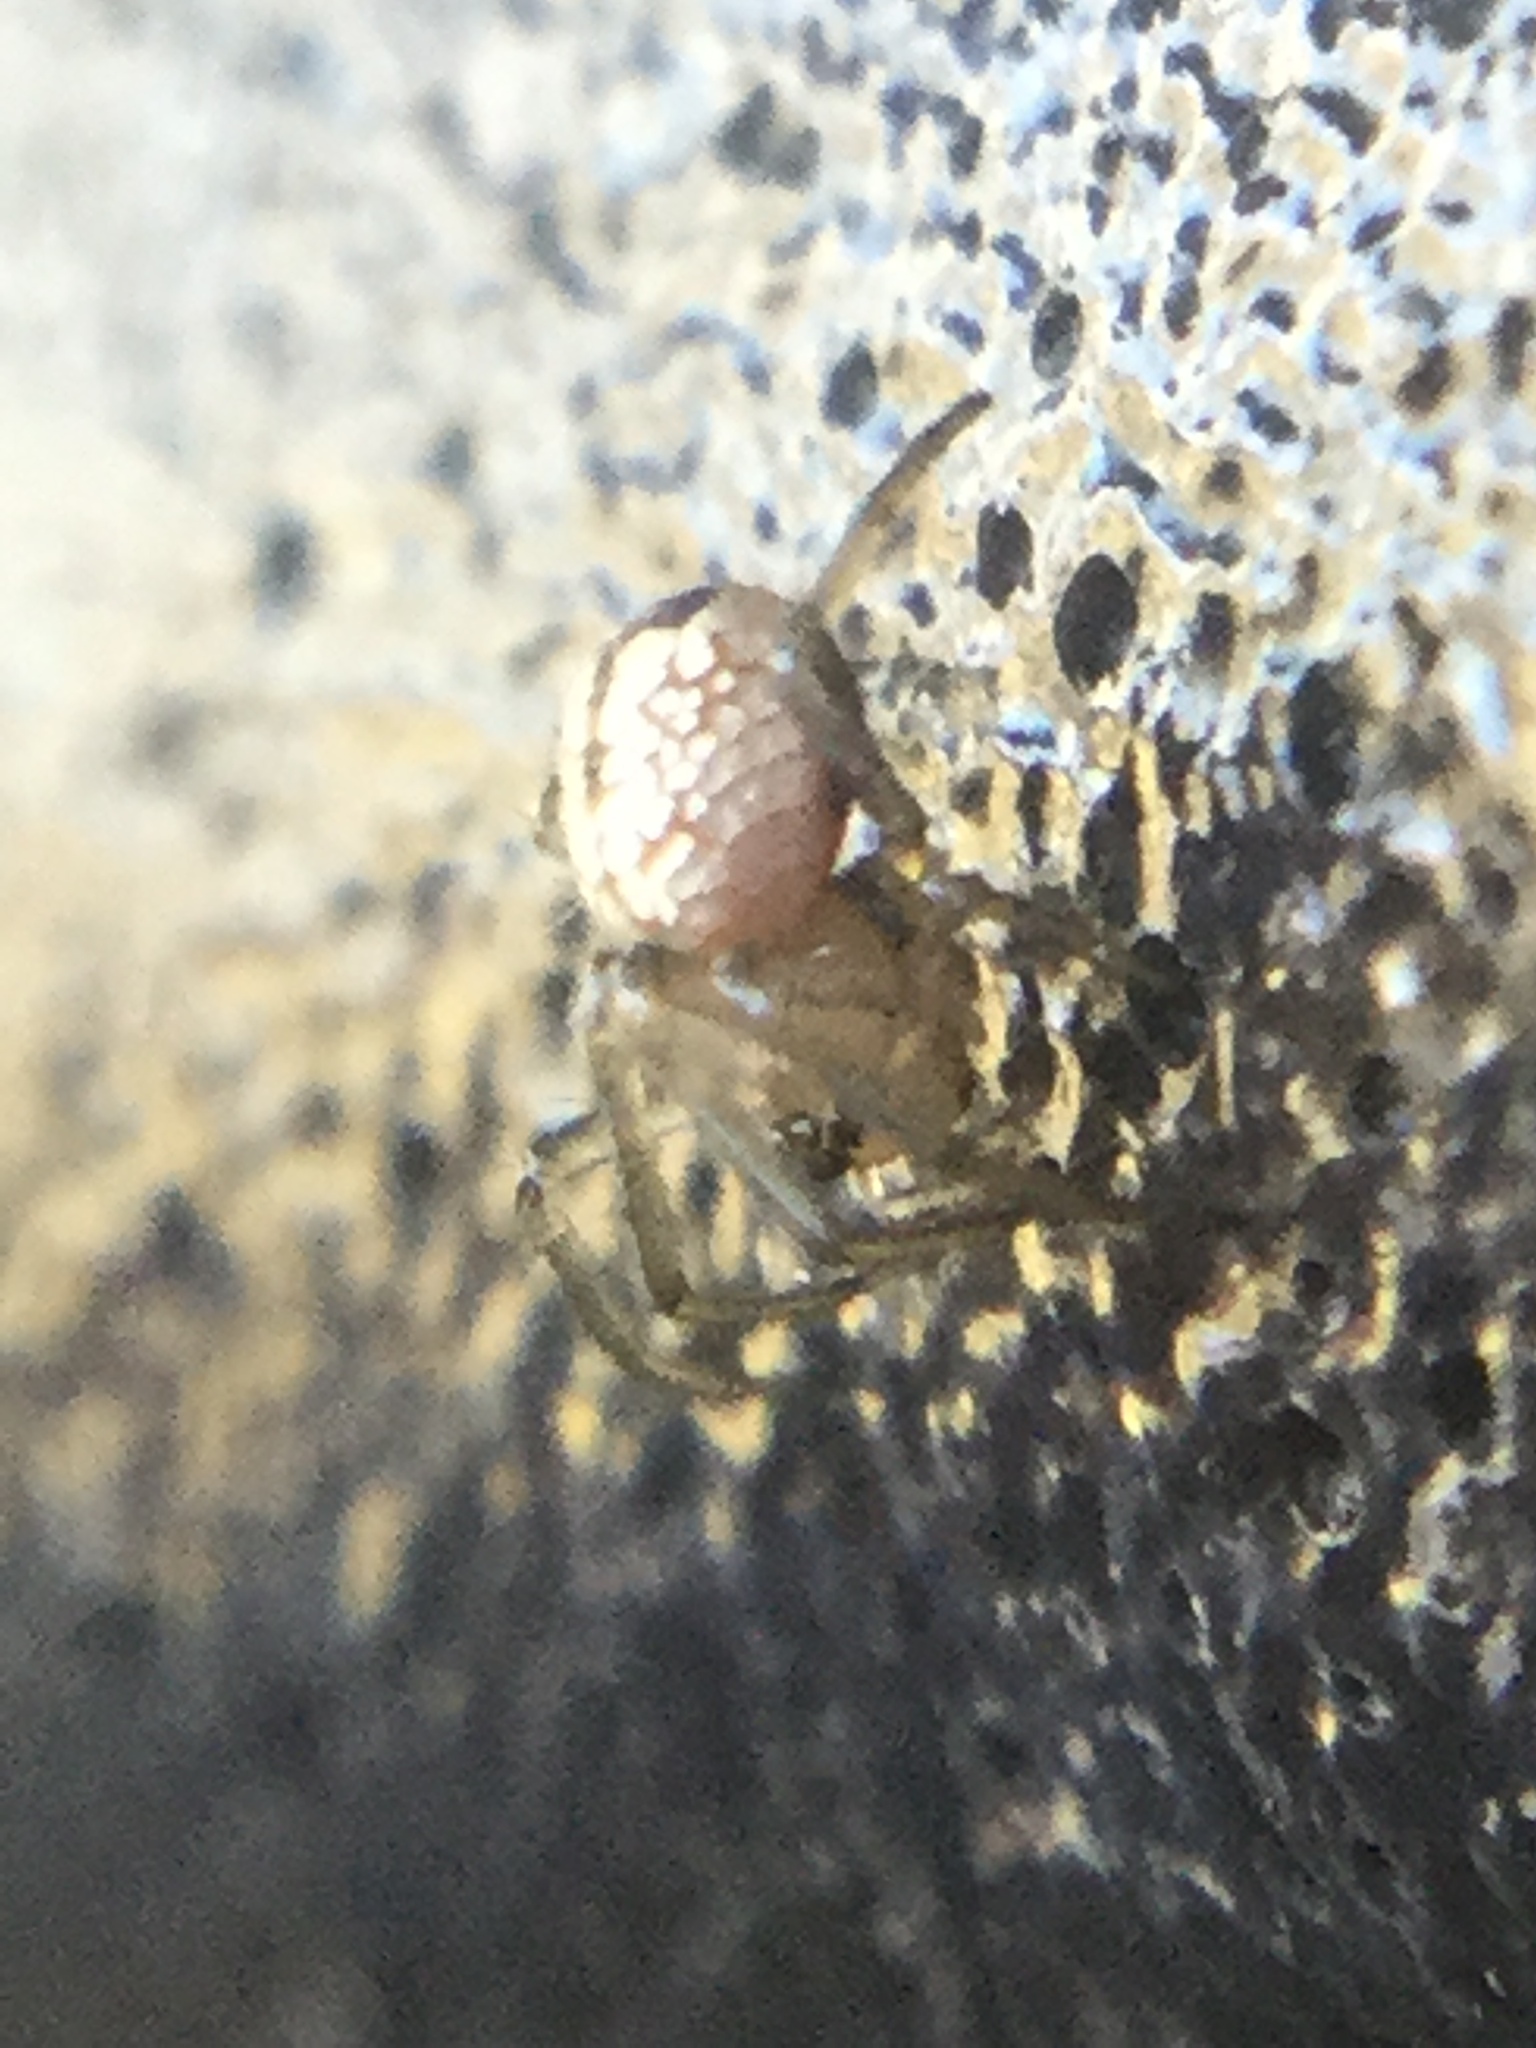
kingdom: Animalia
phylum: Arthropoda
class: Arachnida
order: Araneae
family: Tetragnathidae
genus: Leucauge
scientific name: Leucauge venusta
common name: Longjawed orb weavers
